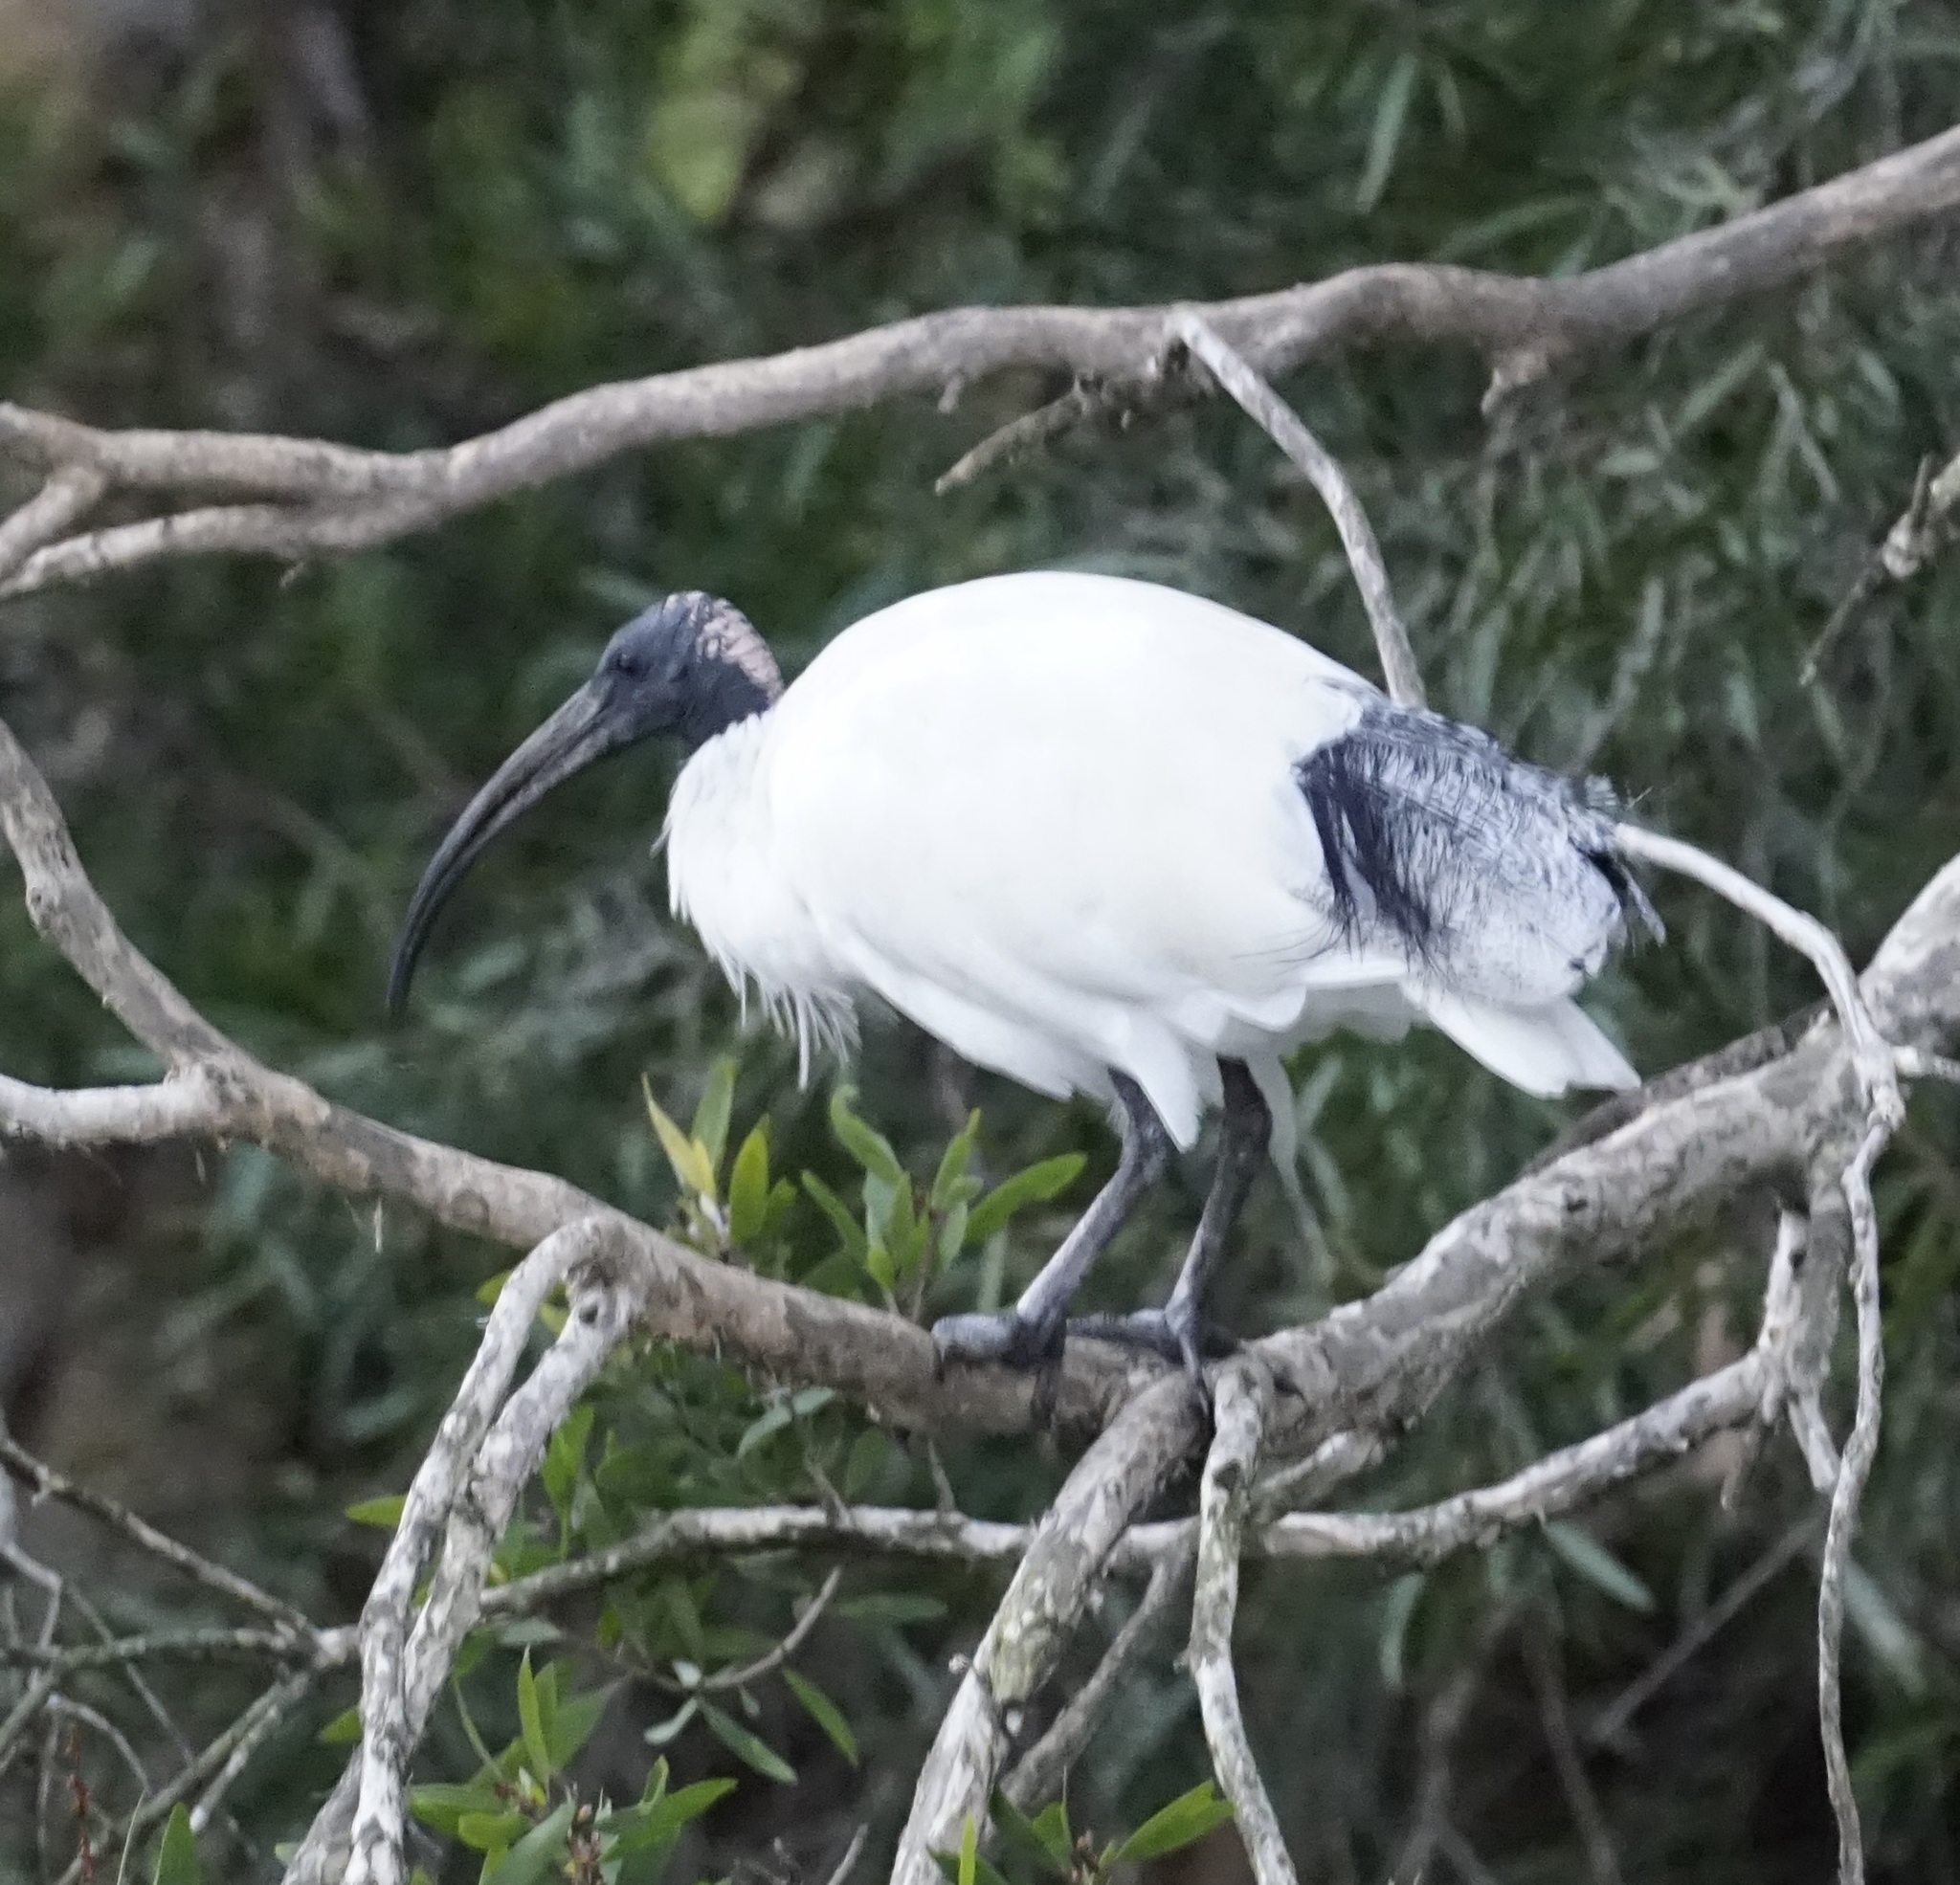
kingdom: Animalia
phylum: Chordata
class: Aves
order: Pelecaniformes
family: Threskiornithidae
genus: Threskiornis
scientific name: Threskiornis molucca
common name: Australian white ibis
